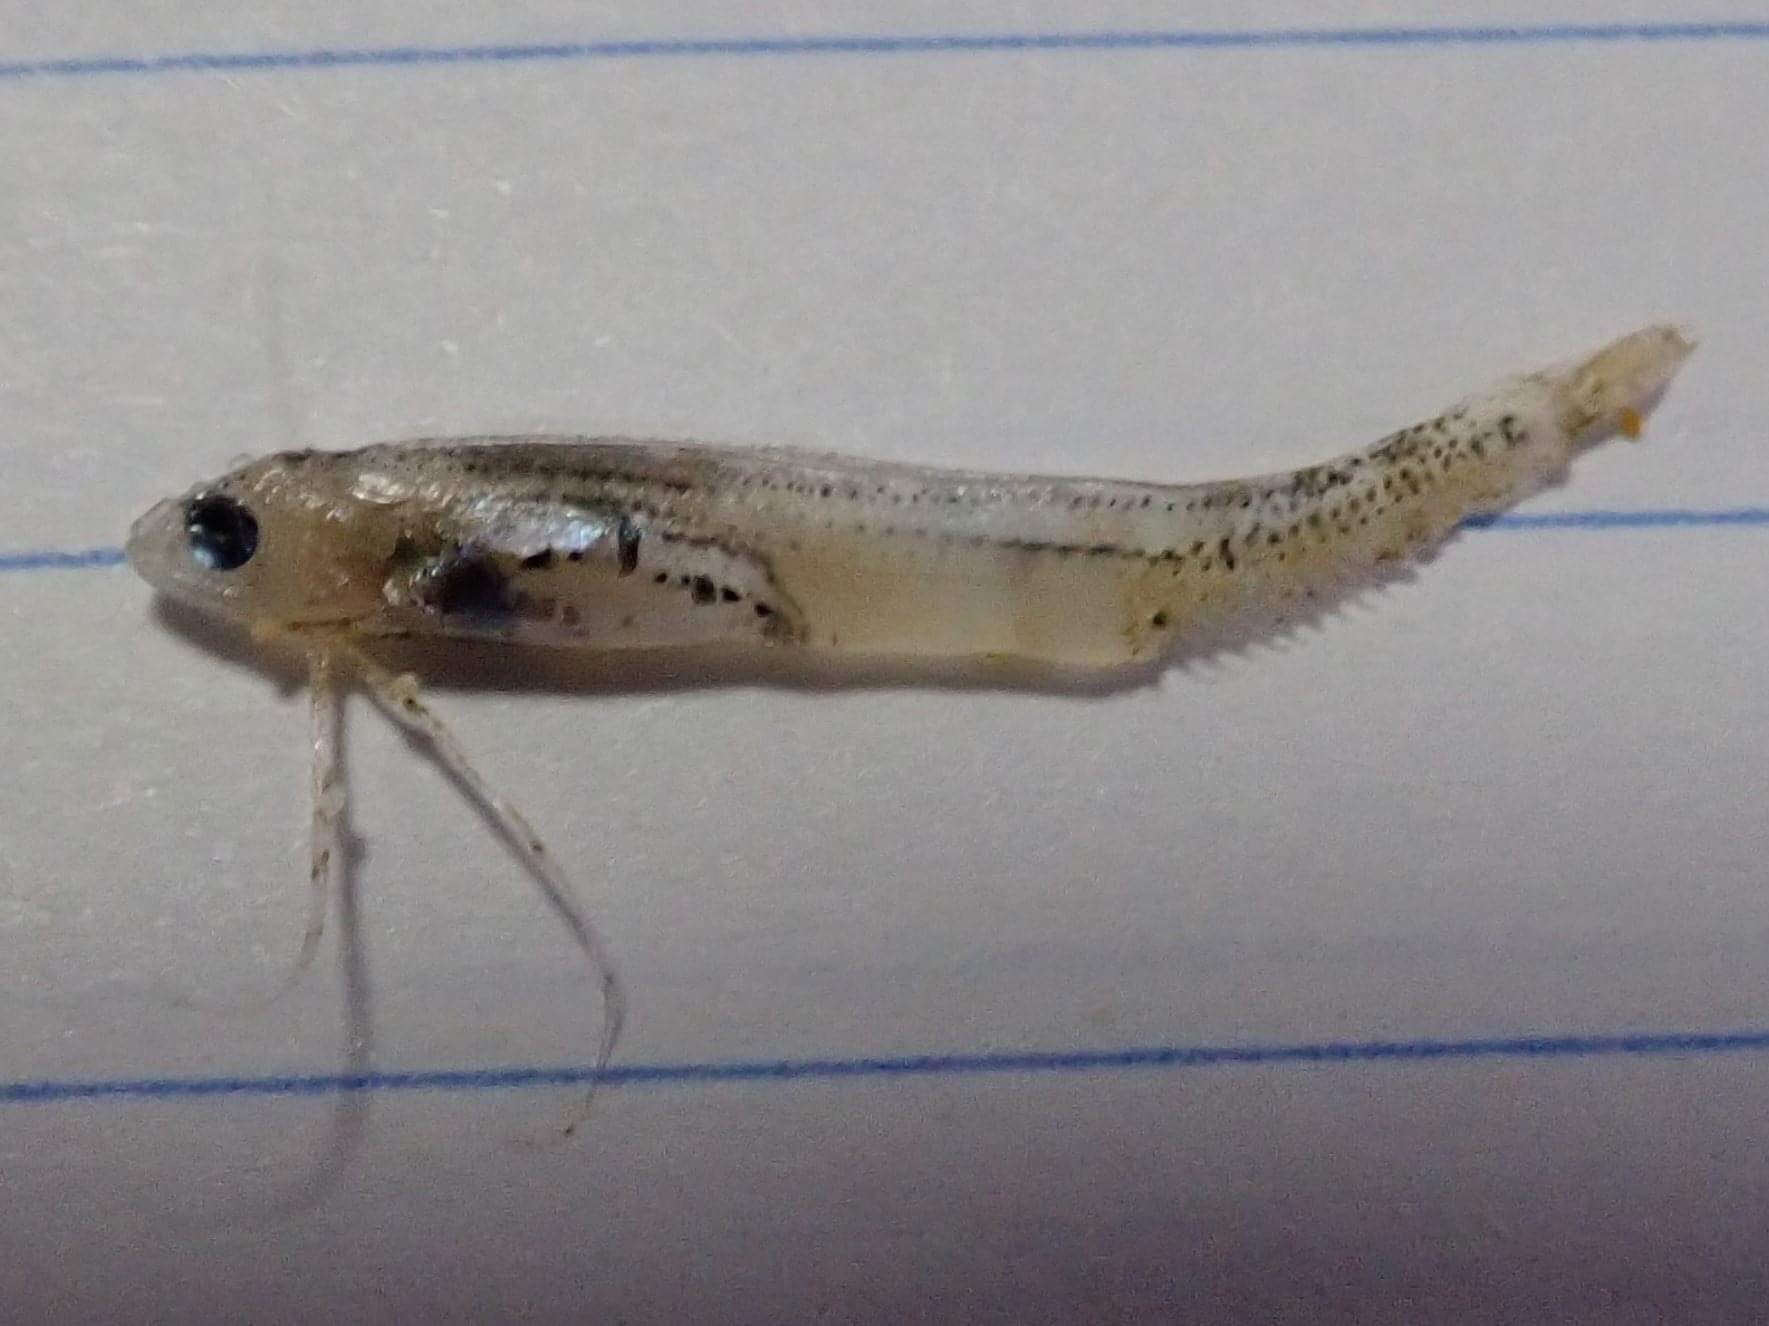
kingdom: Animalia
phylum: Chordata
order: Gadiformes
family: Bregmacerotidae
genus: Bregmaceros
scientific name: Bregmaceros
